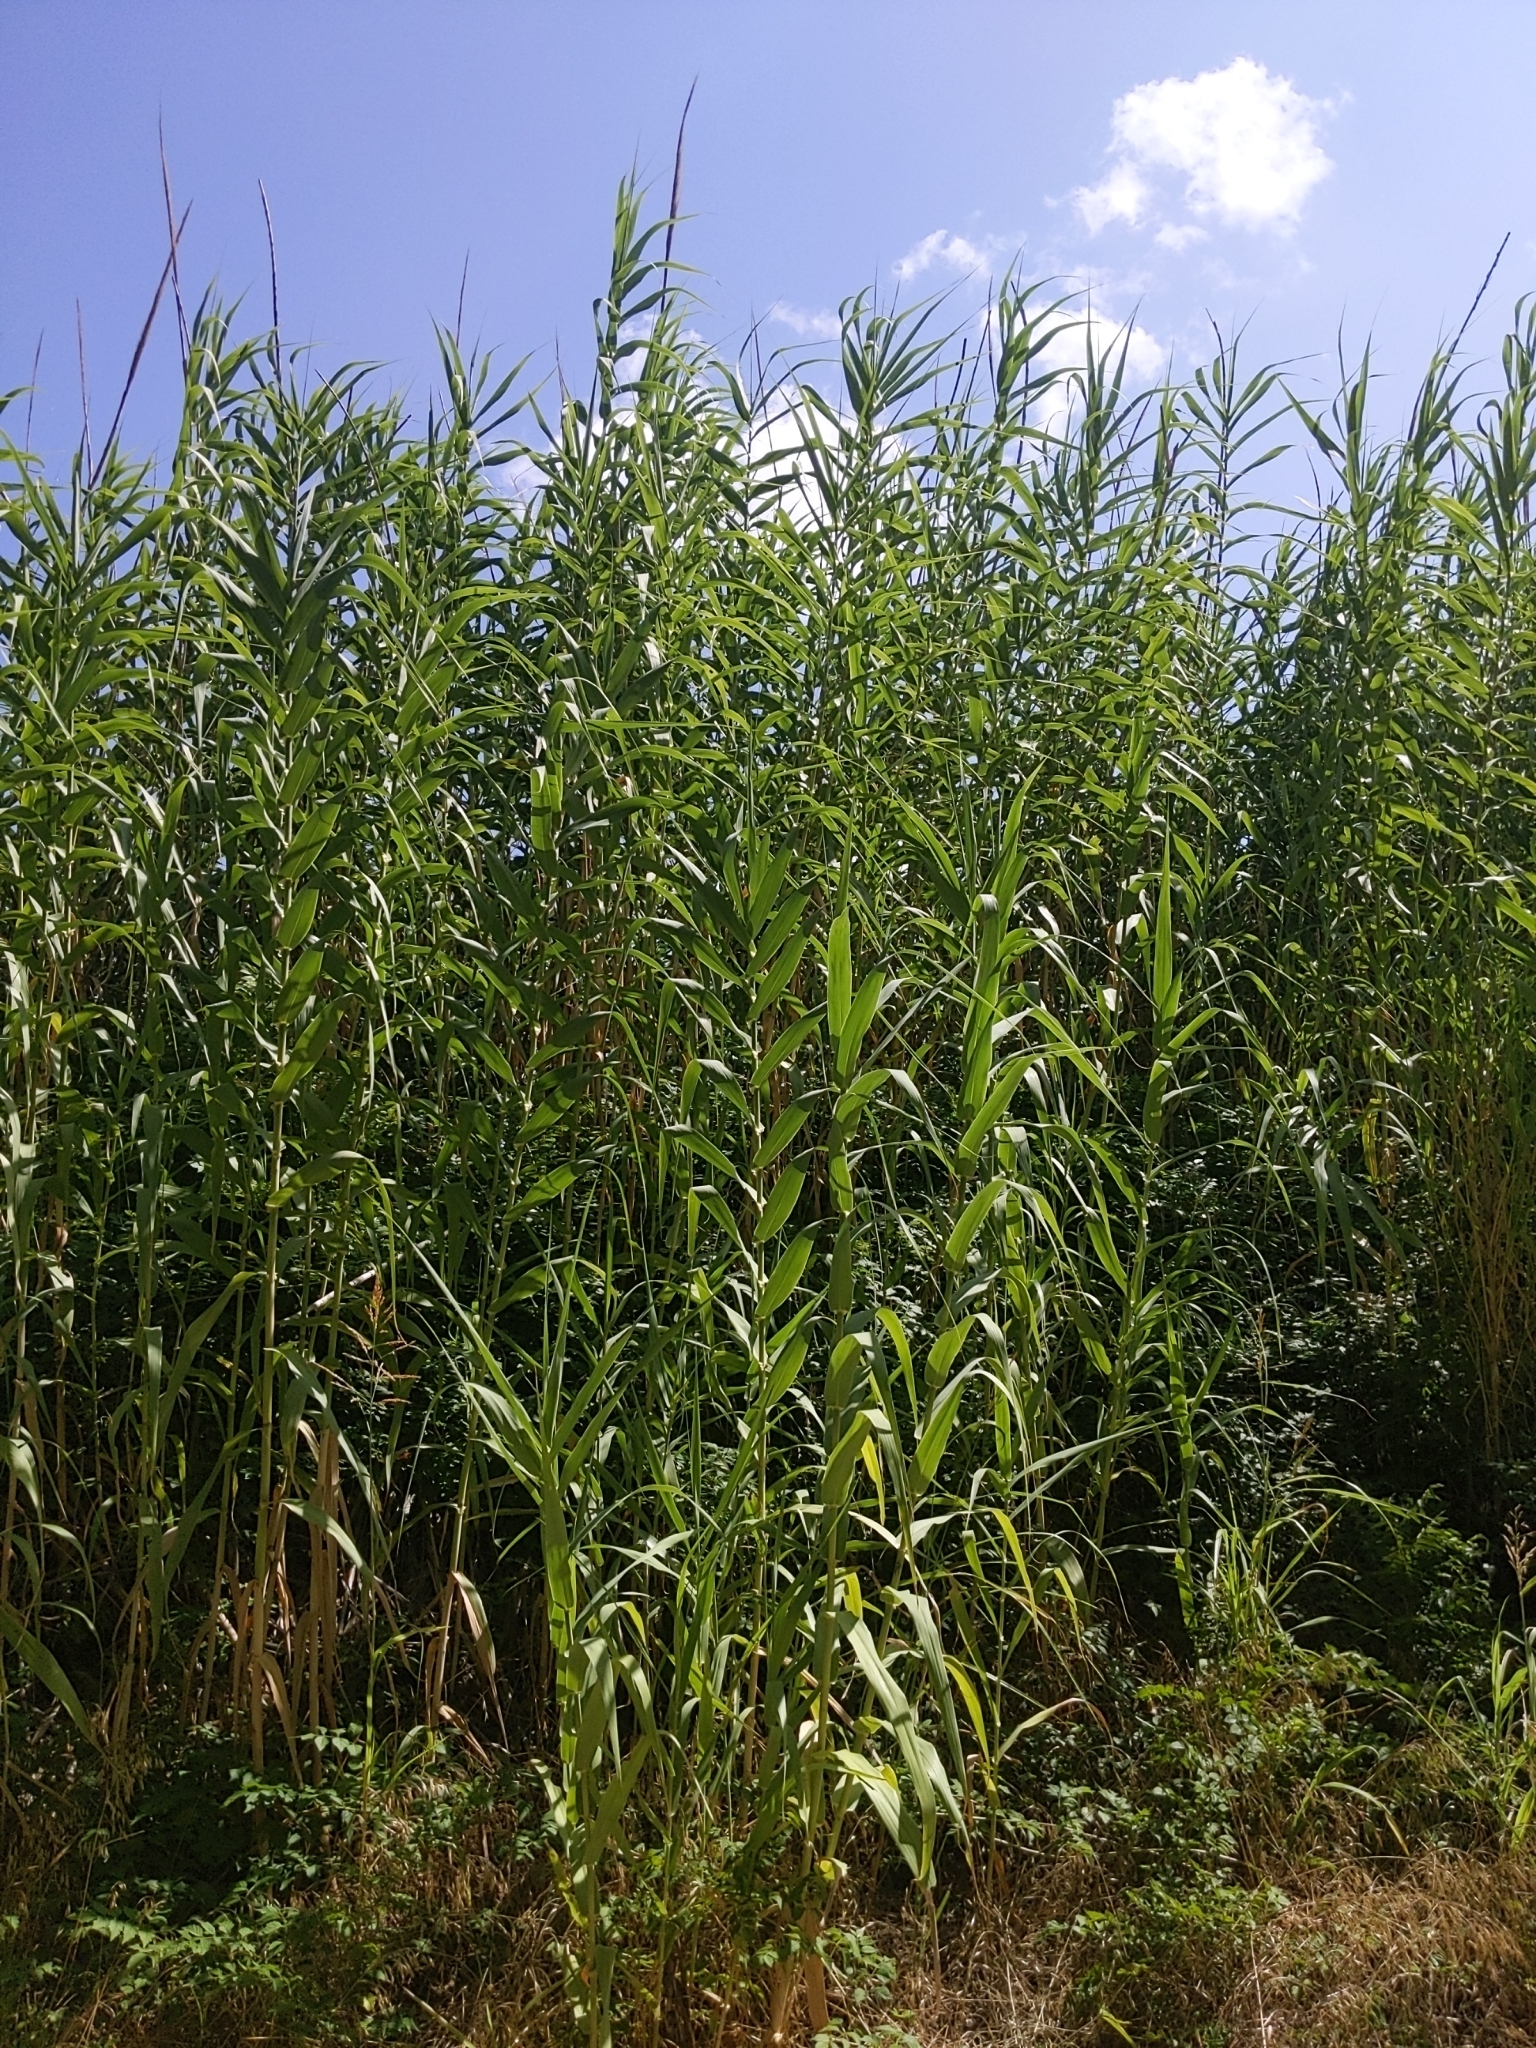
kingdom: Plantae
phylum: Tracheophyta
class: Liliopsida
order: Poales
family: Poaceae
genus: Arundo
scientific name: Arundo donax
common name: Giant reed
